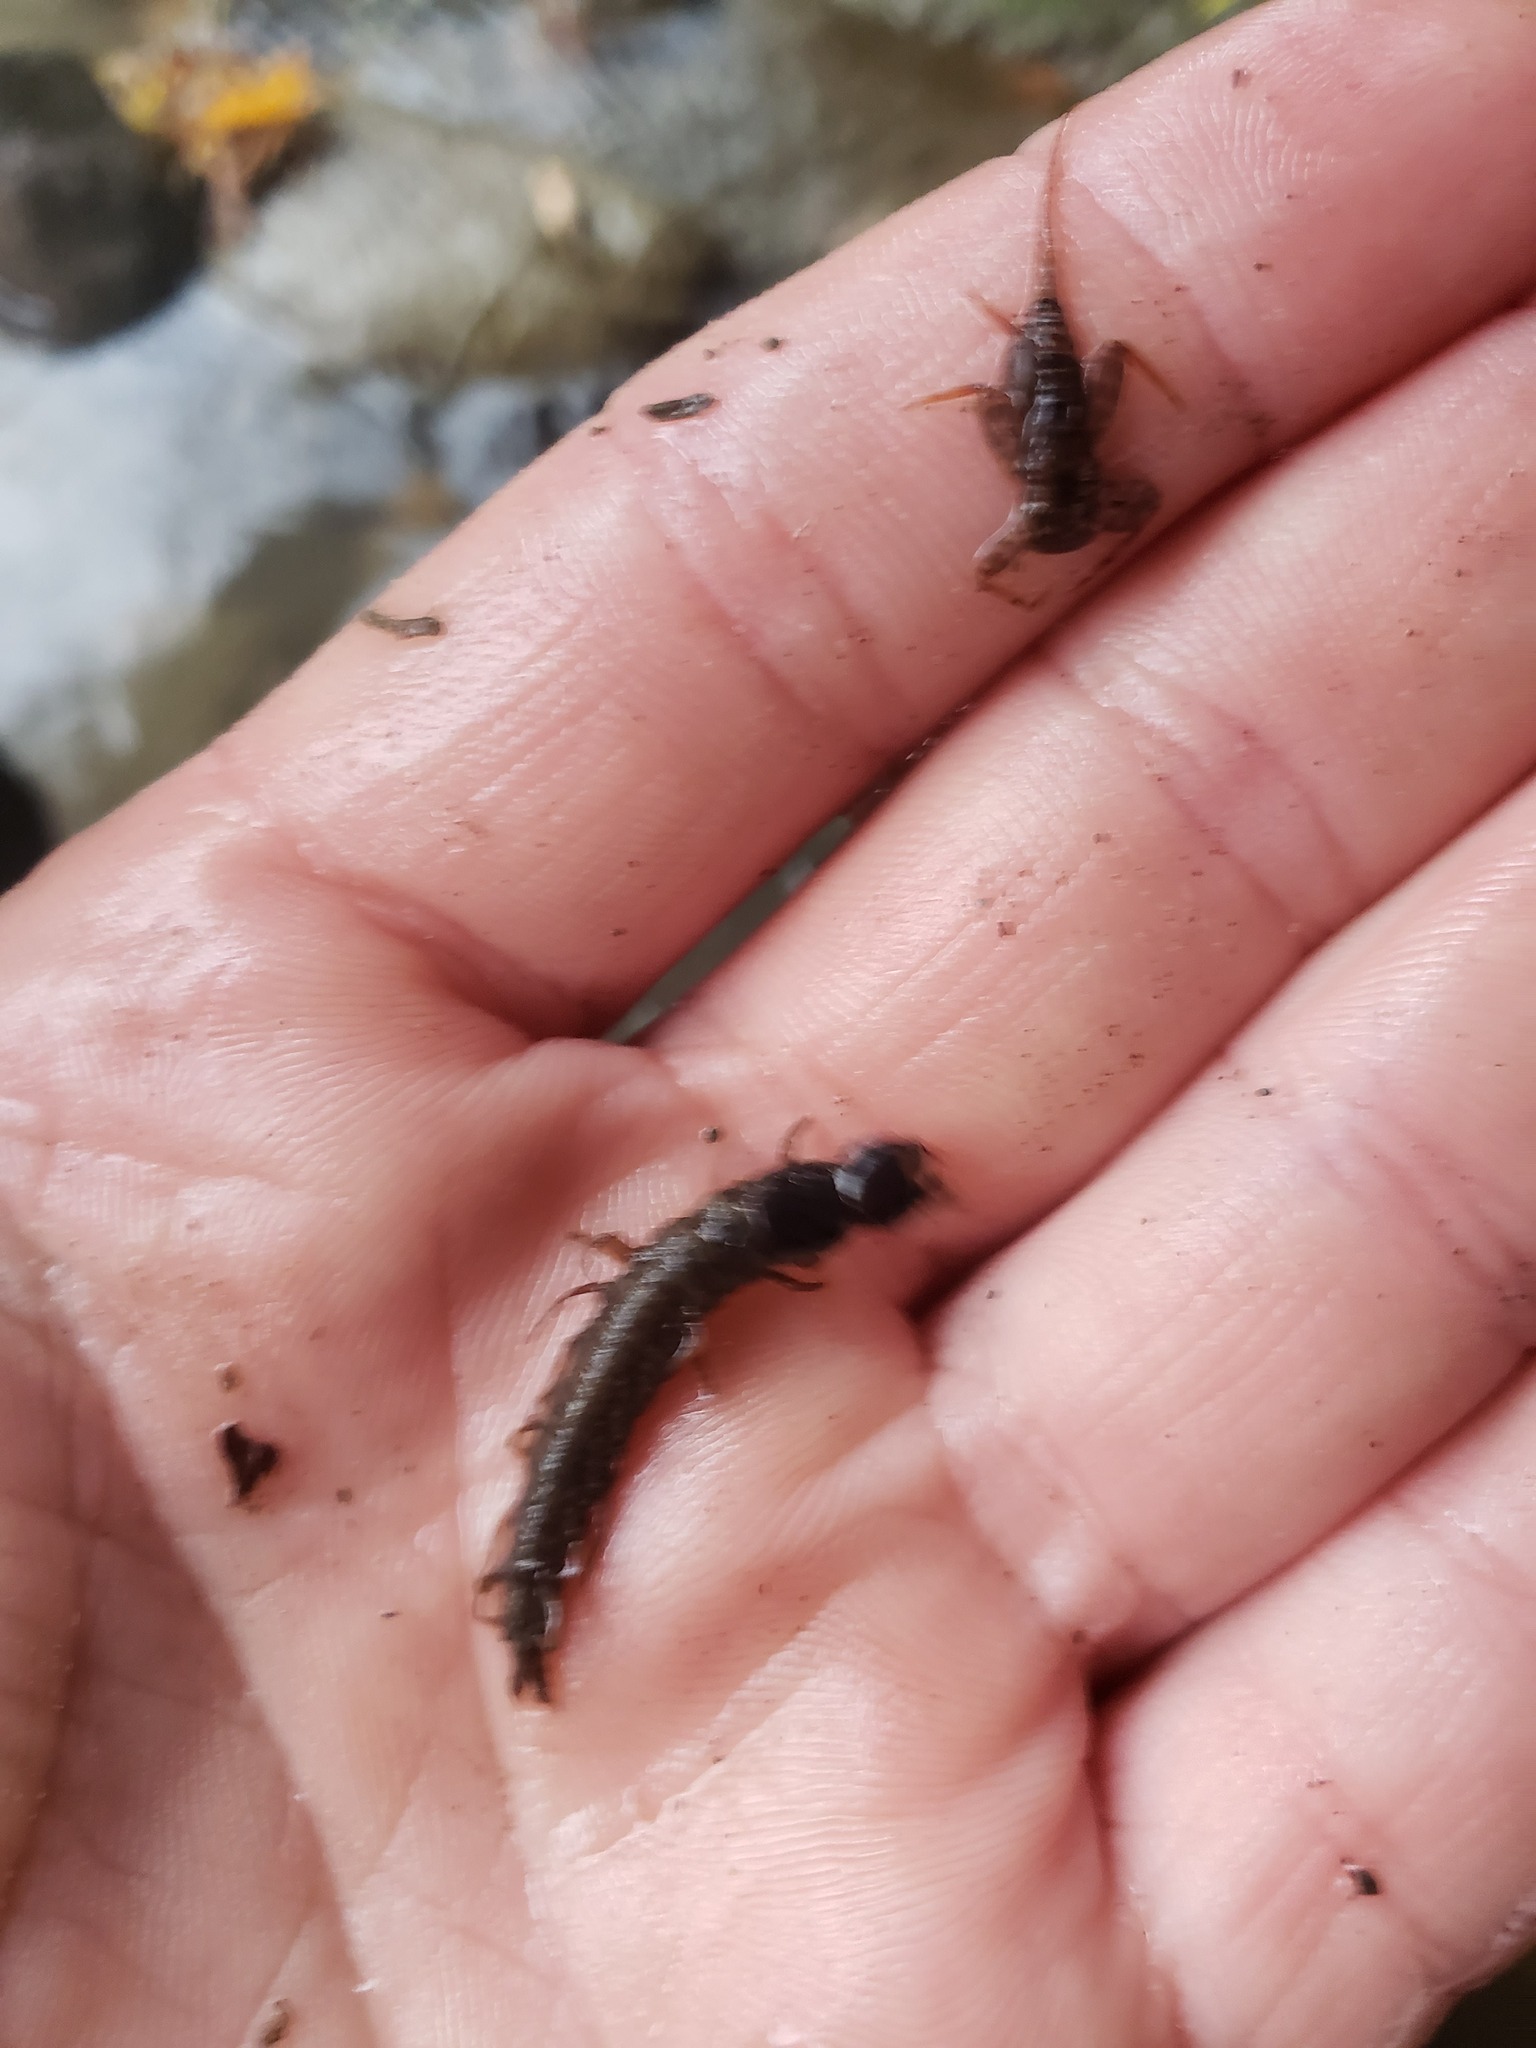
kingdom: Animalia
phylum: Arthropoda
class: Insecta
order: Megaloptera
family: Corydalidae
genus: Nigronia
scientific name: Nigronia serricornis
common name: Serrate dark fishfly
